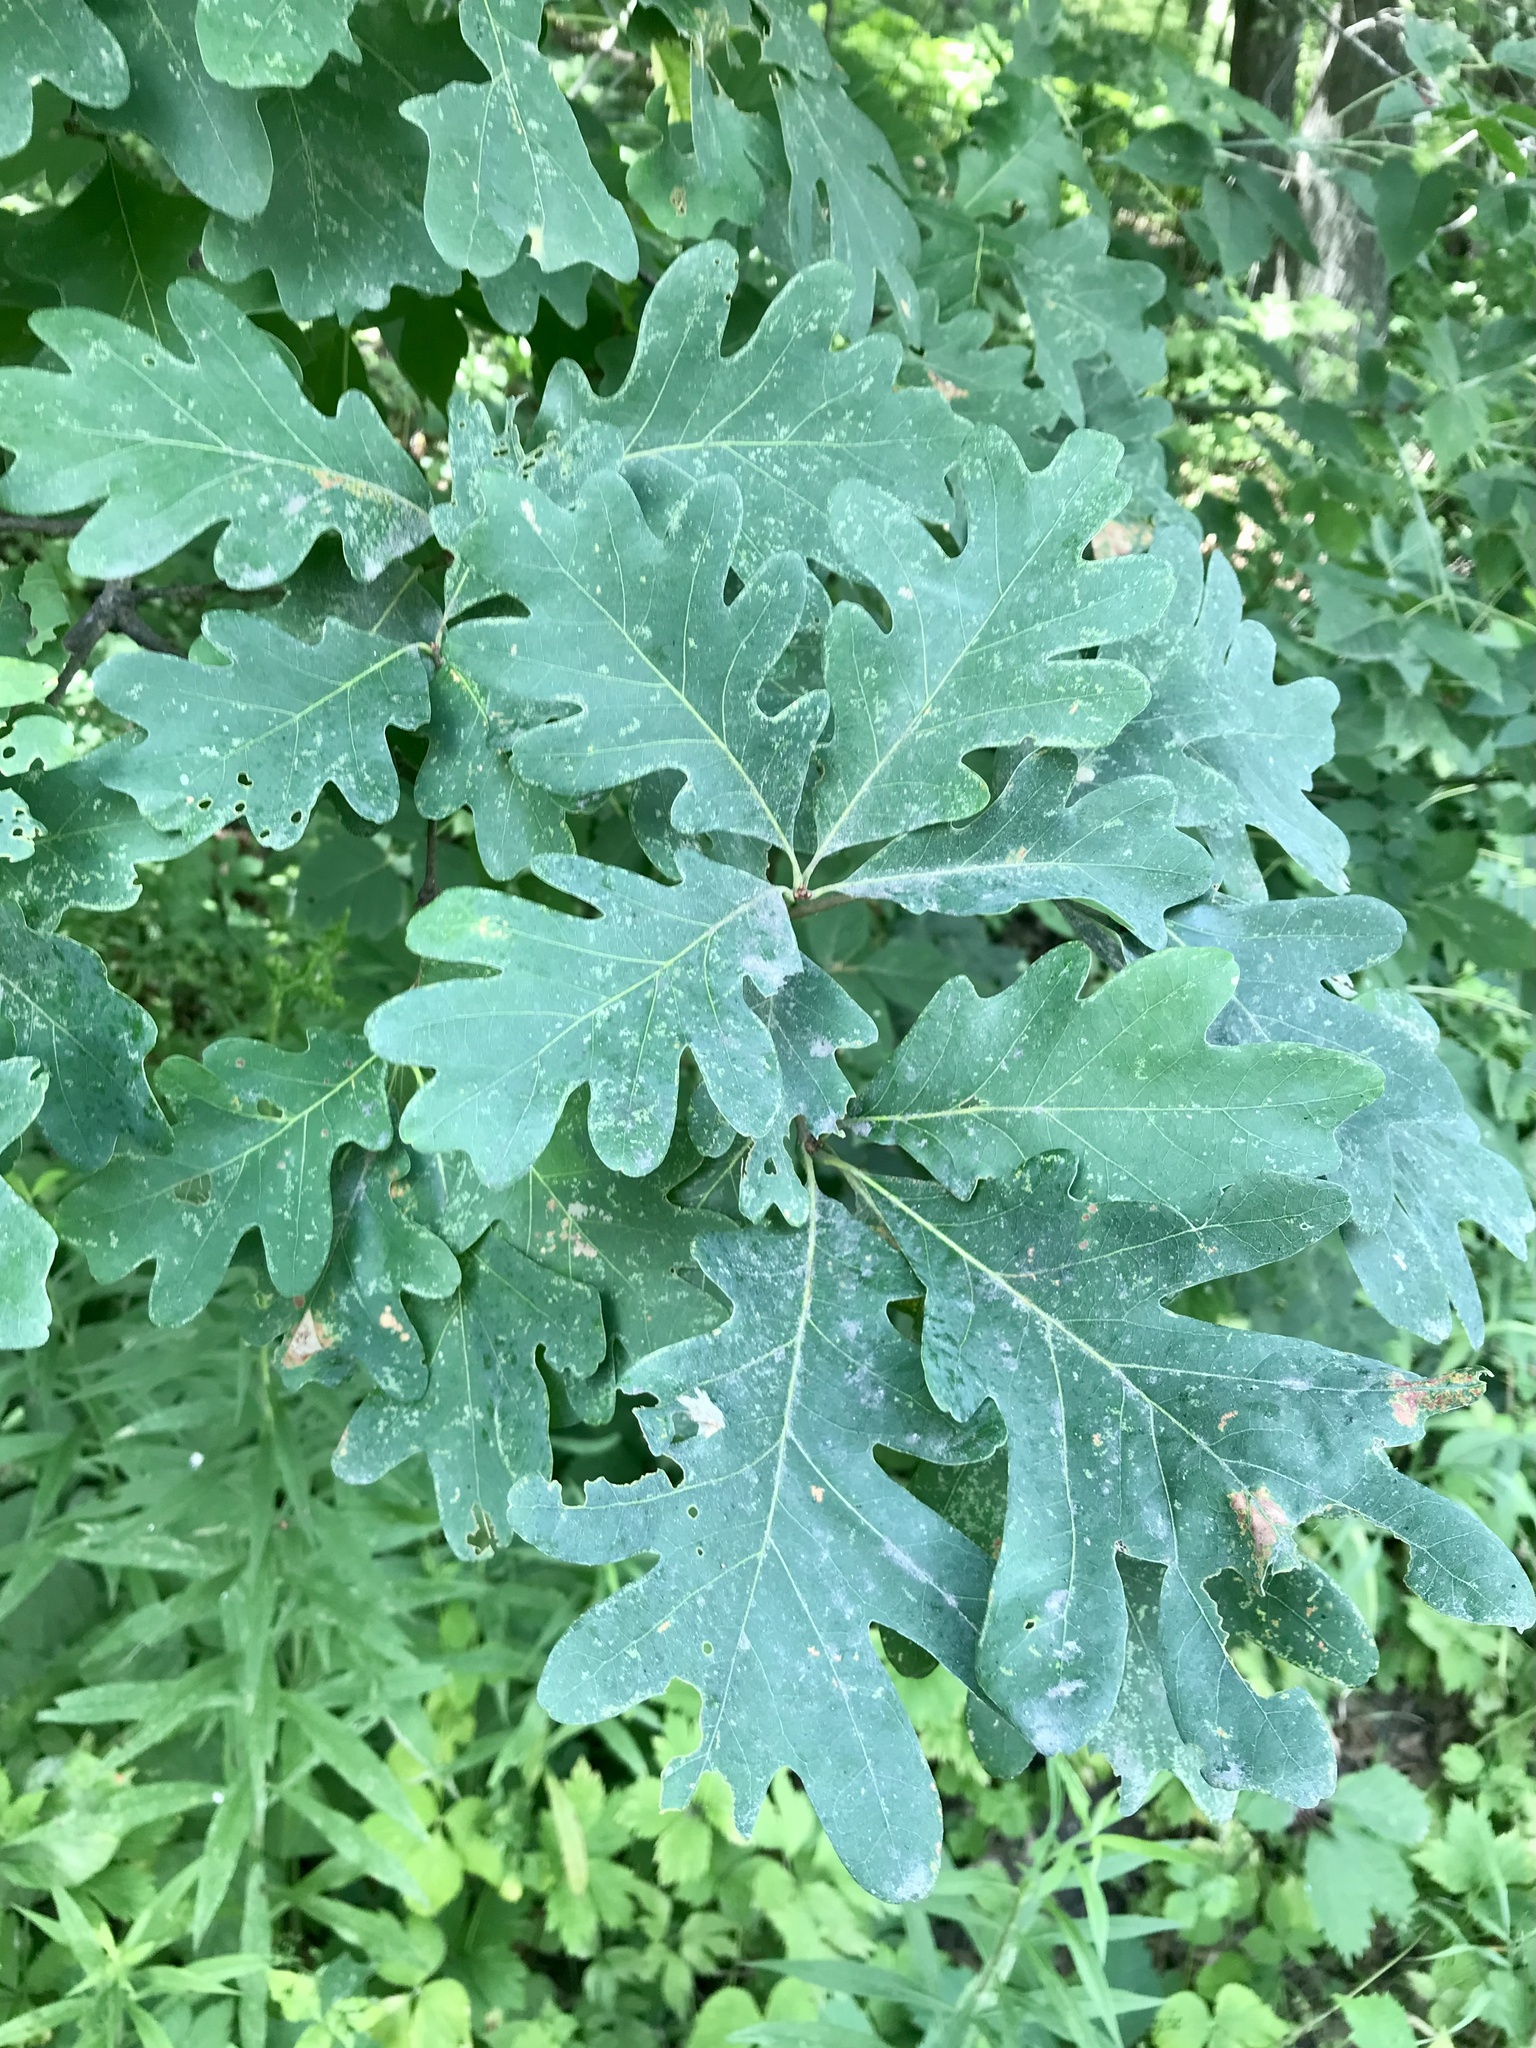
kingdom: Plantae
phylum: Tracheophyta
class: Magnoliopsida
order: Fagales
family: Fagaceae
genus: Quercus
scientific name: Quercus alba
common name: White oak
